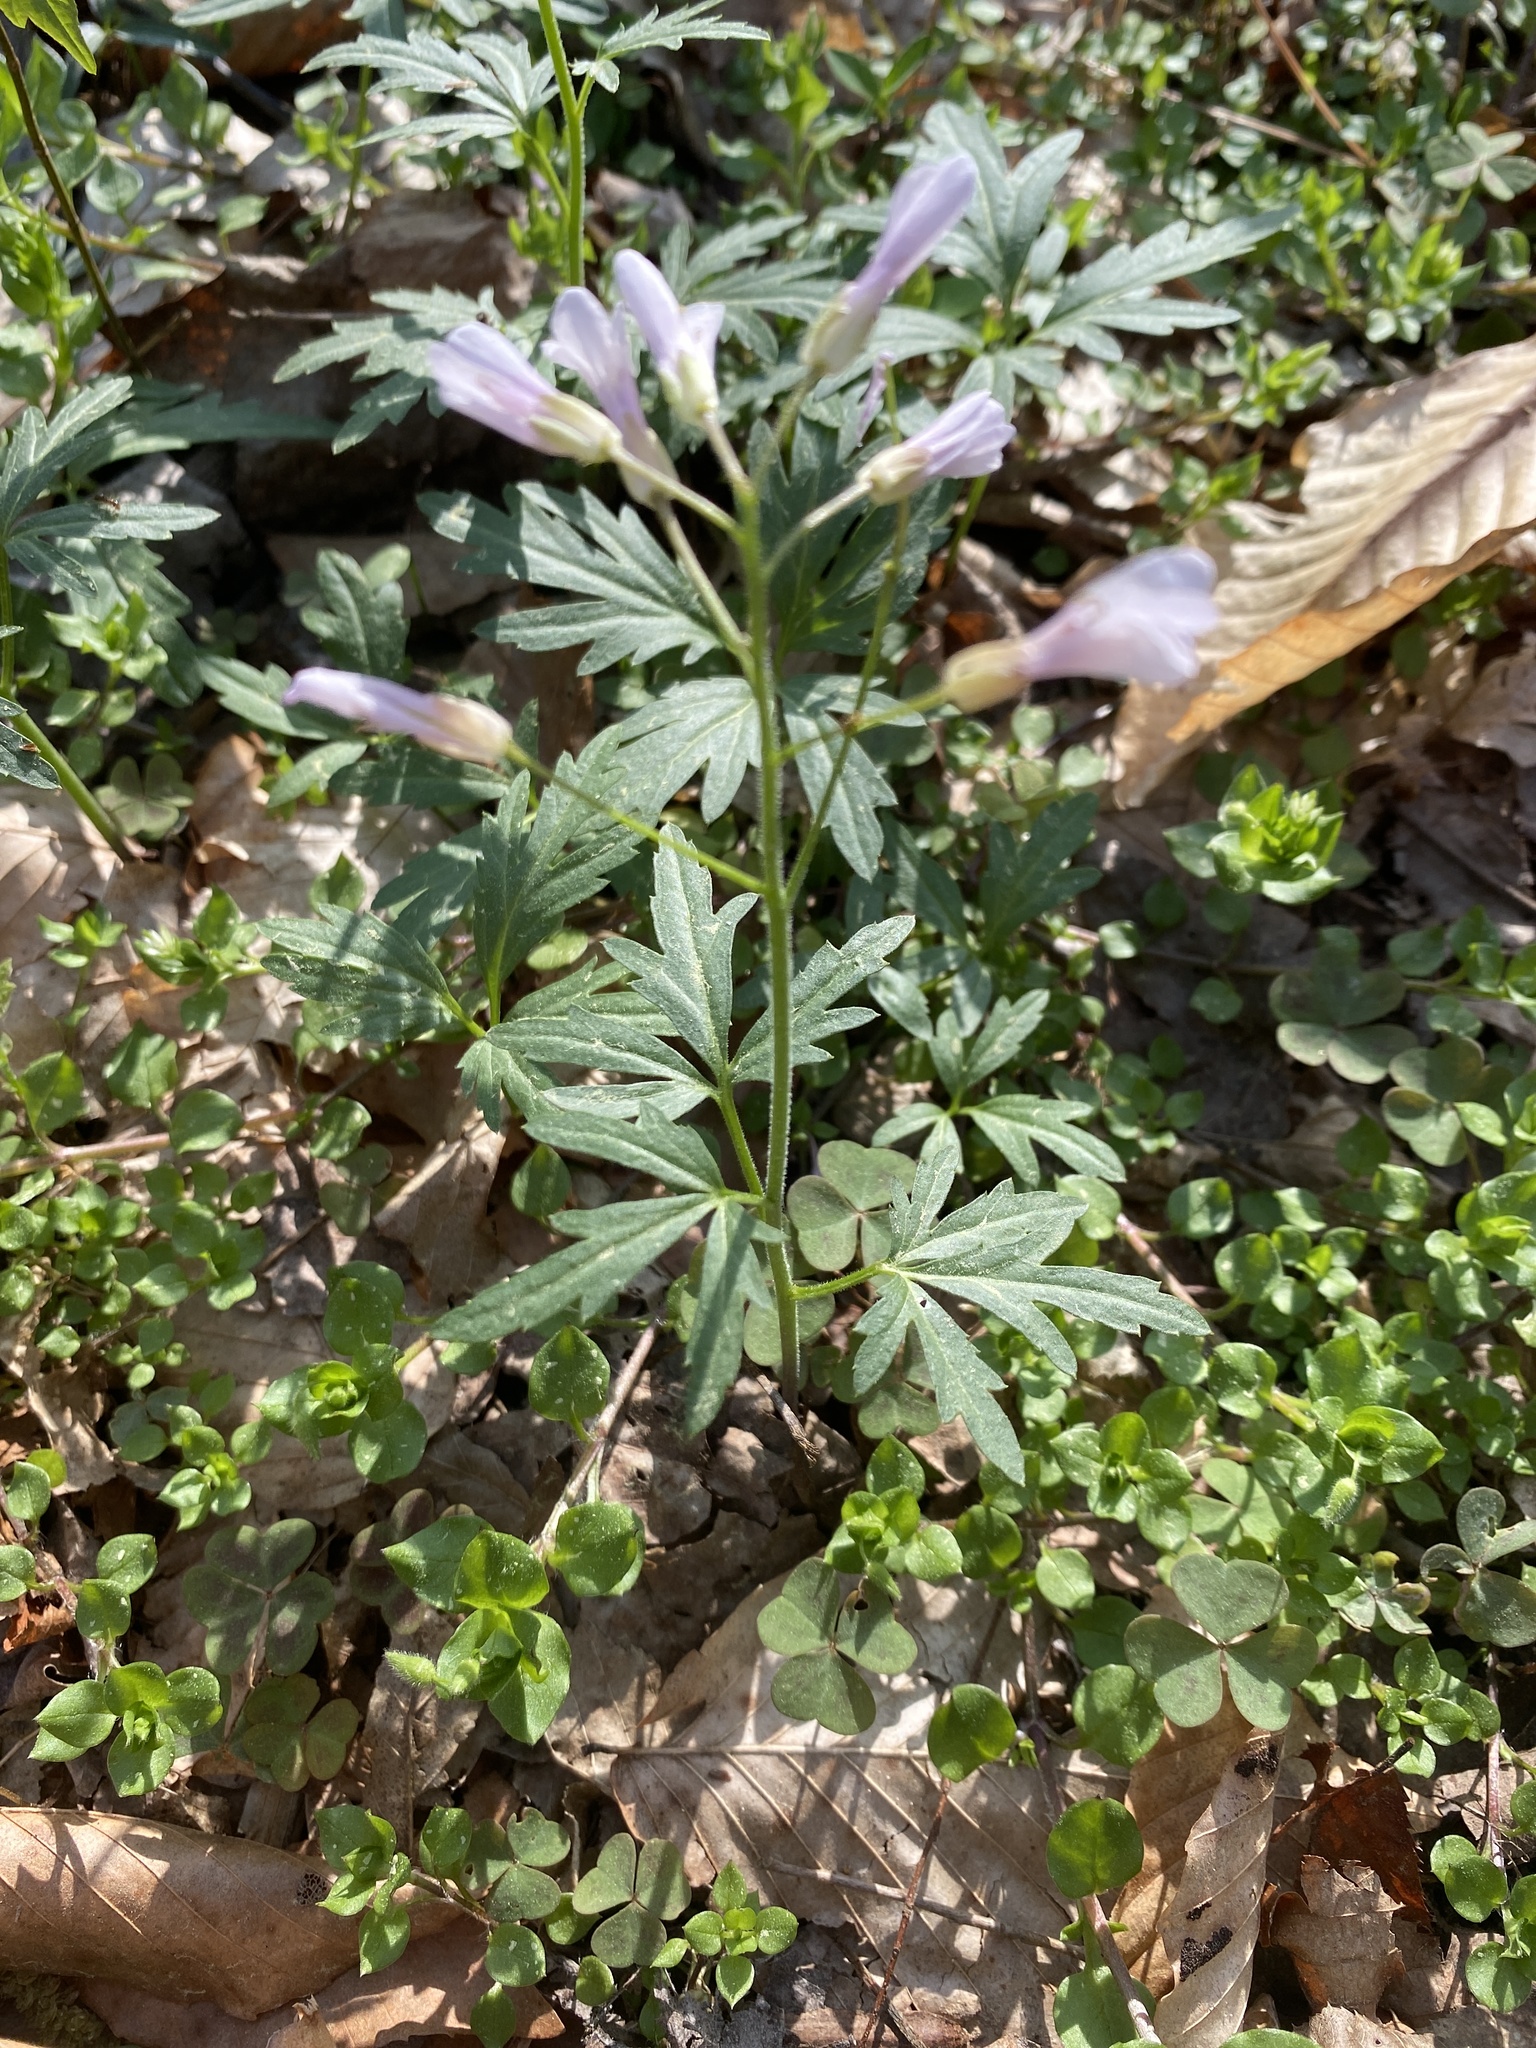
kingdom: Plantae
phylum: Tracheophyta
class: Magnoliopsida
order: Brassicales
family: Brassicaceae
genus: Cardamine
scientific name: Cardamine concatenata
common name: Cut-leaf toothcup
